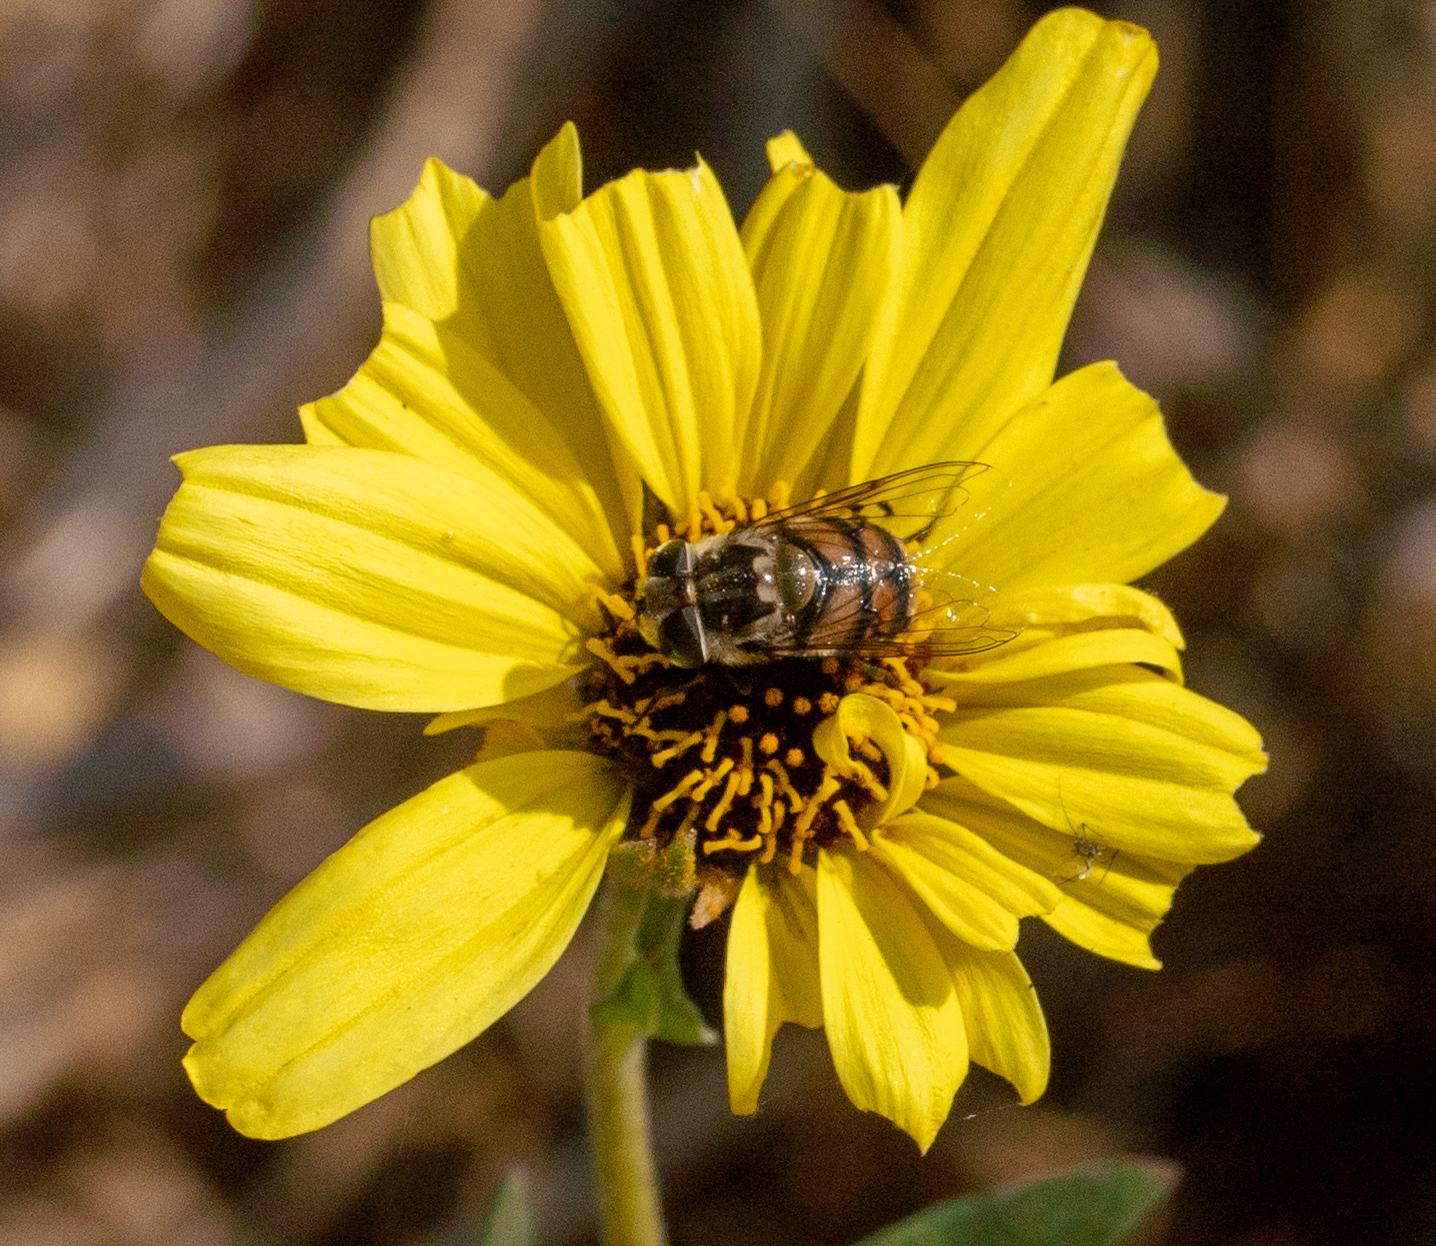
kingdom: Animalia
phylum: Arthropoda
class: Insecta
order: Diptera
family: Syrphidae
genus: Copestylum
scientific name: Copestylum avidum
